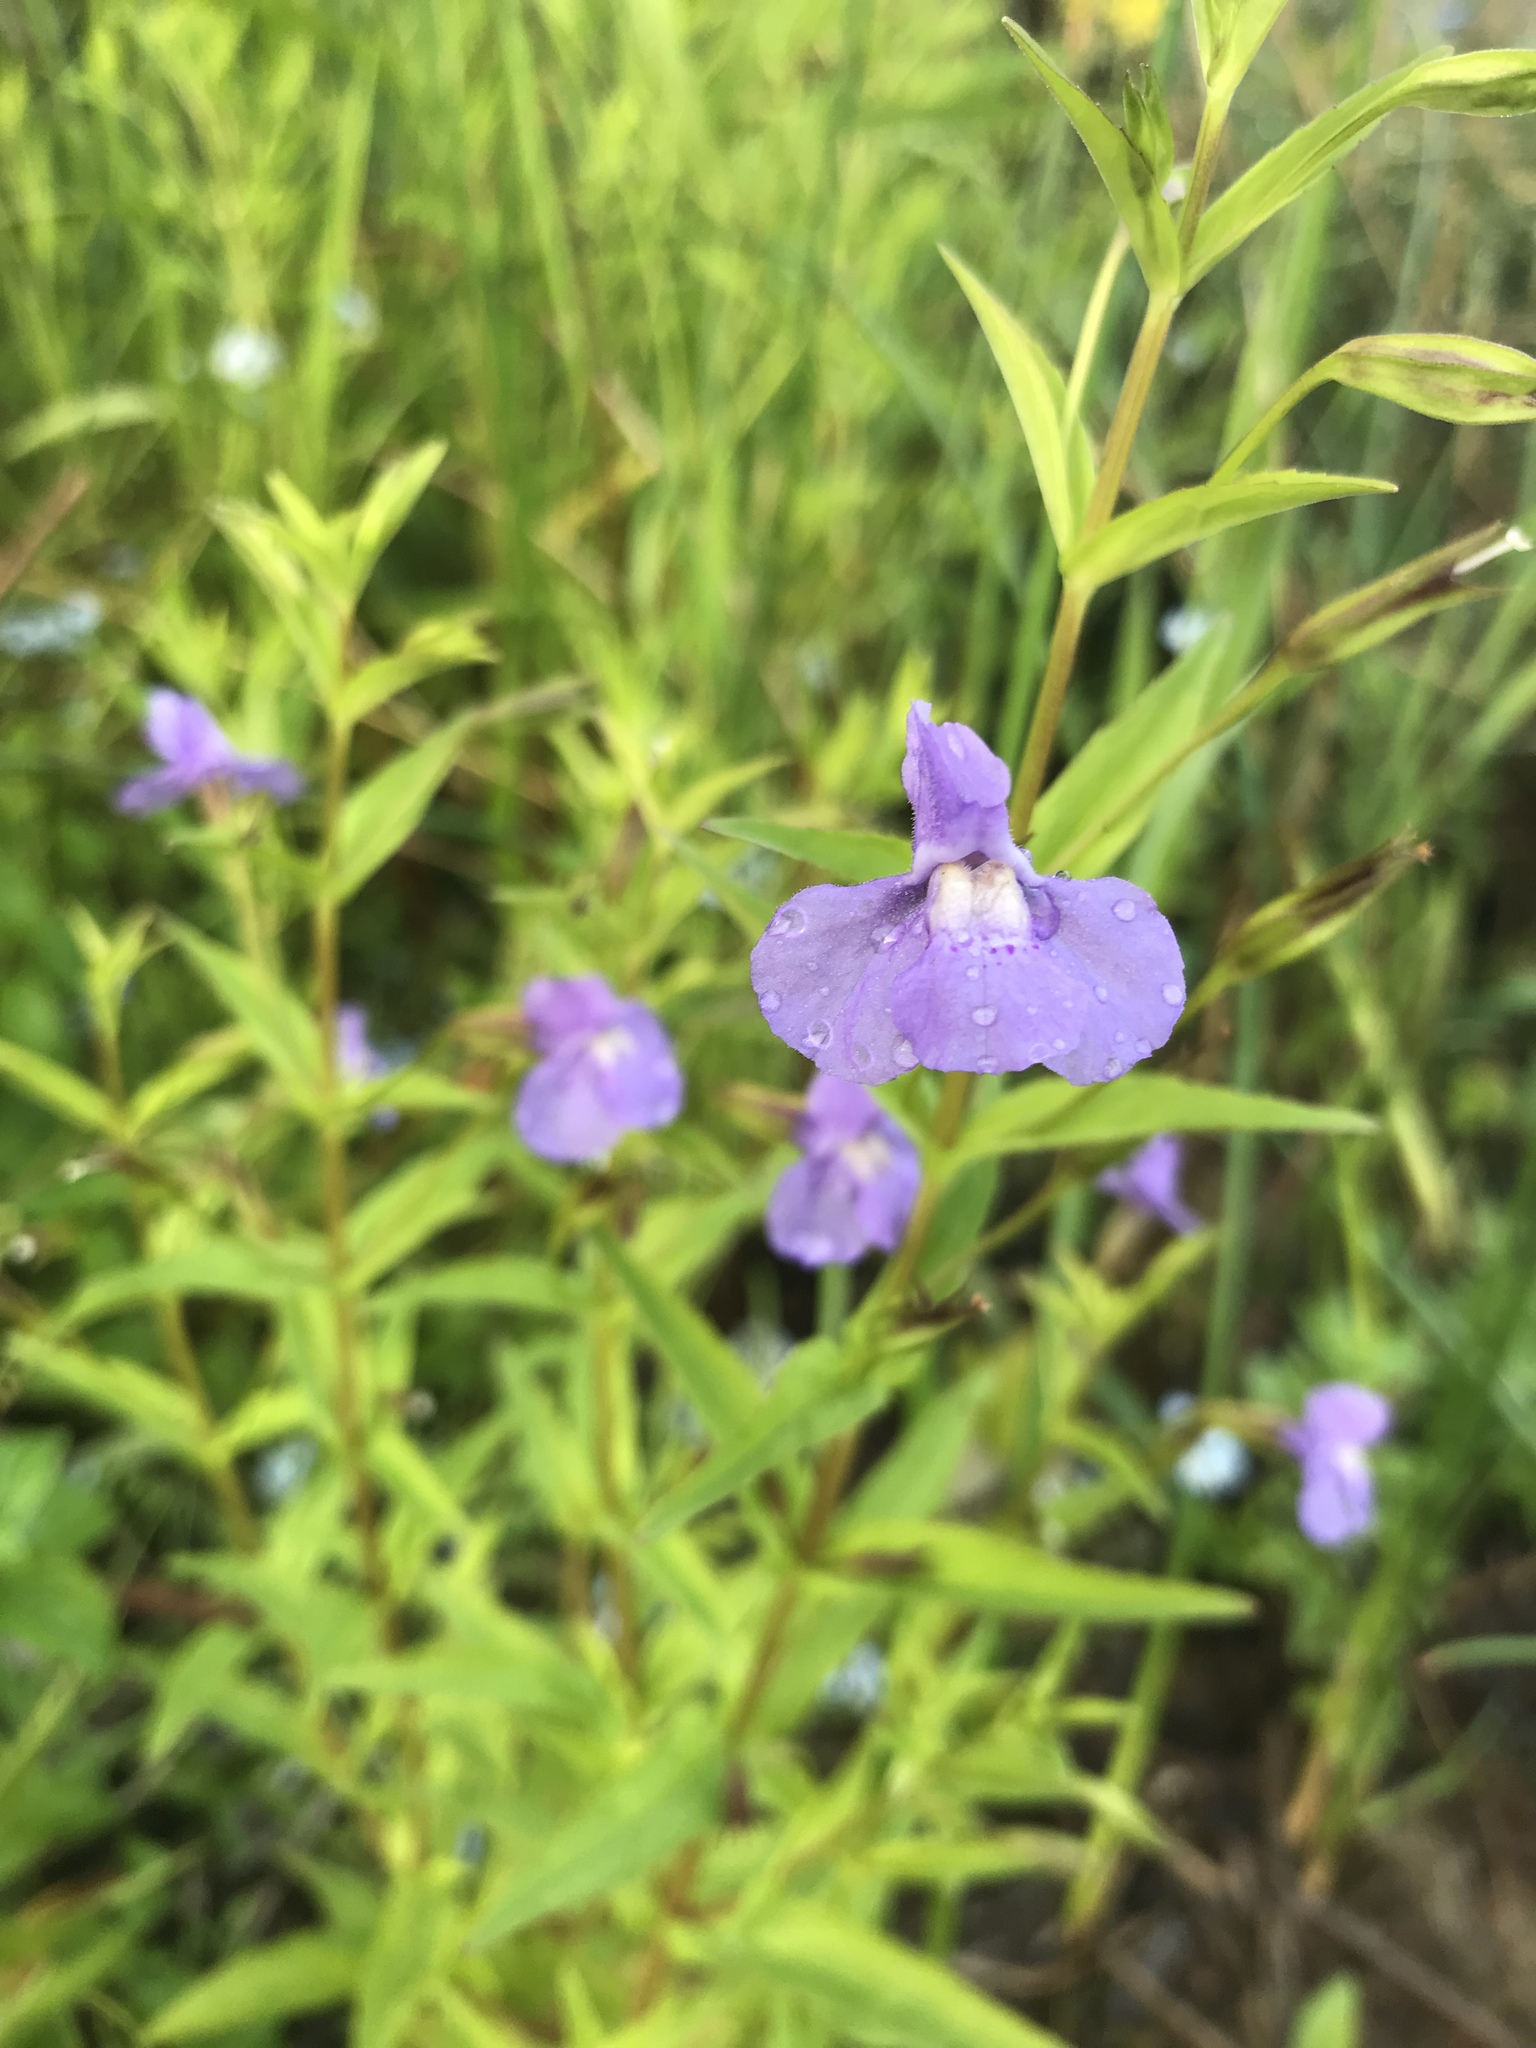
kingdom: Plantae
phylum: Tracheophyta
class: Magnoliopsida
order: Lamiales
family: Phrymaceae
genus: Mimulus
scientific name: Mimulus ringens
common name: Allegheny monkeyflower
